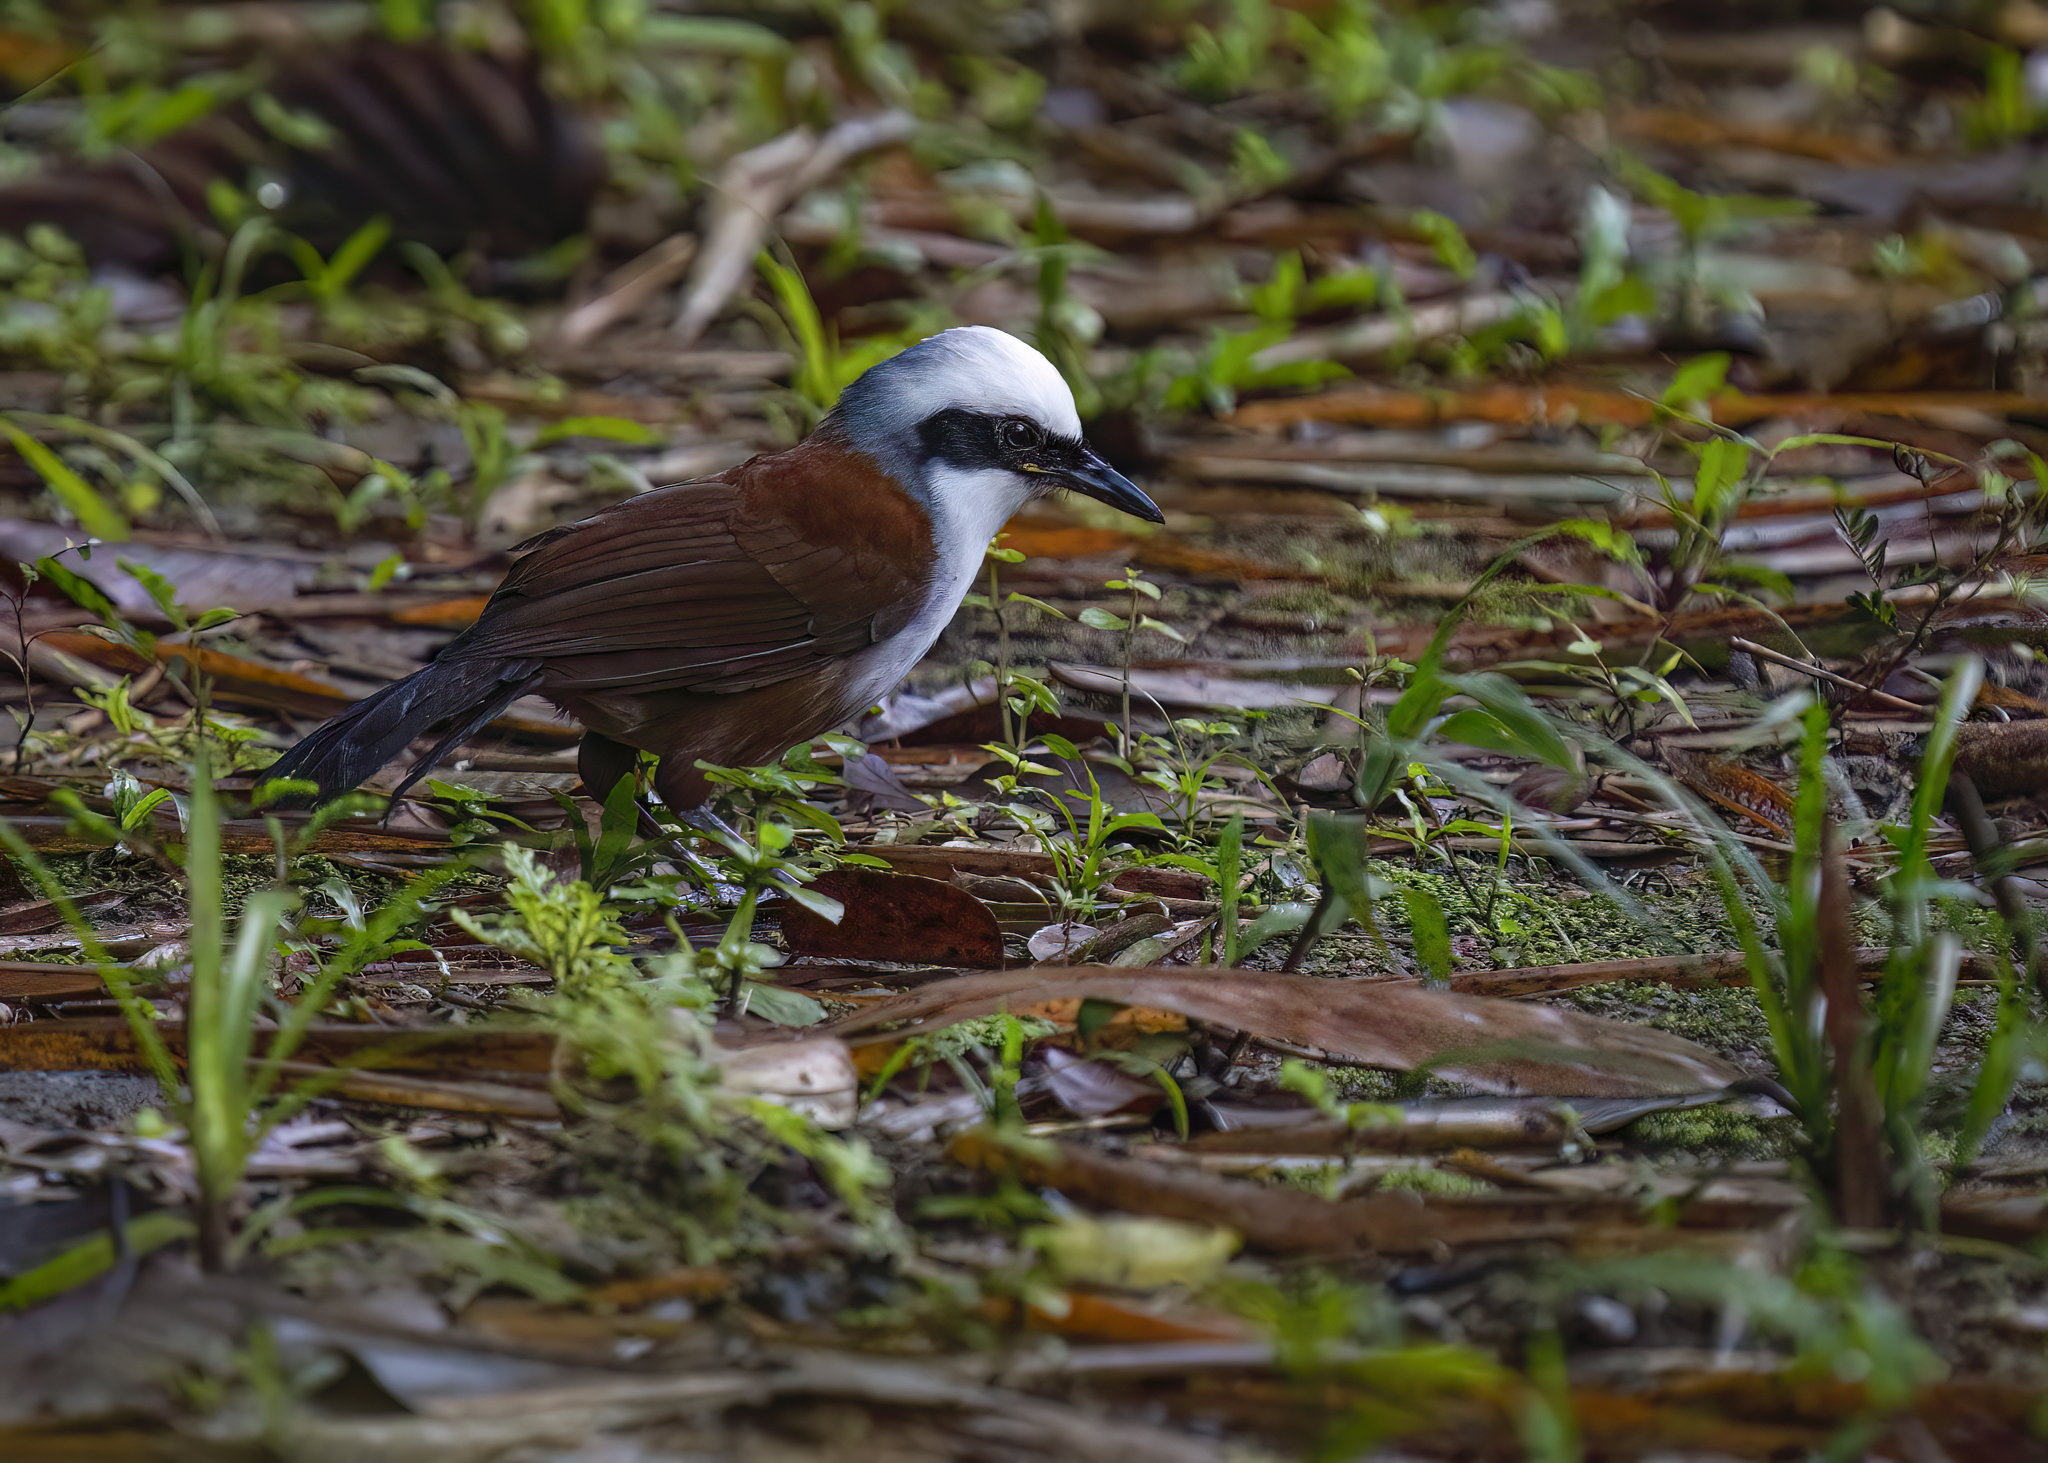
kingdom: Animalia
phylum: Chordata
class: Aves
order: Passeriformes
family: Leiothrichidae
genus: Garrulax
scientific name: Garrulax leucolophus
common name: White-crested laughingthrush
